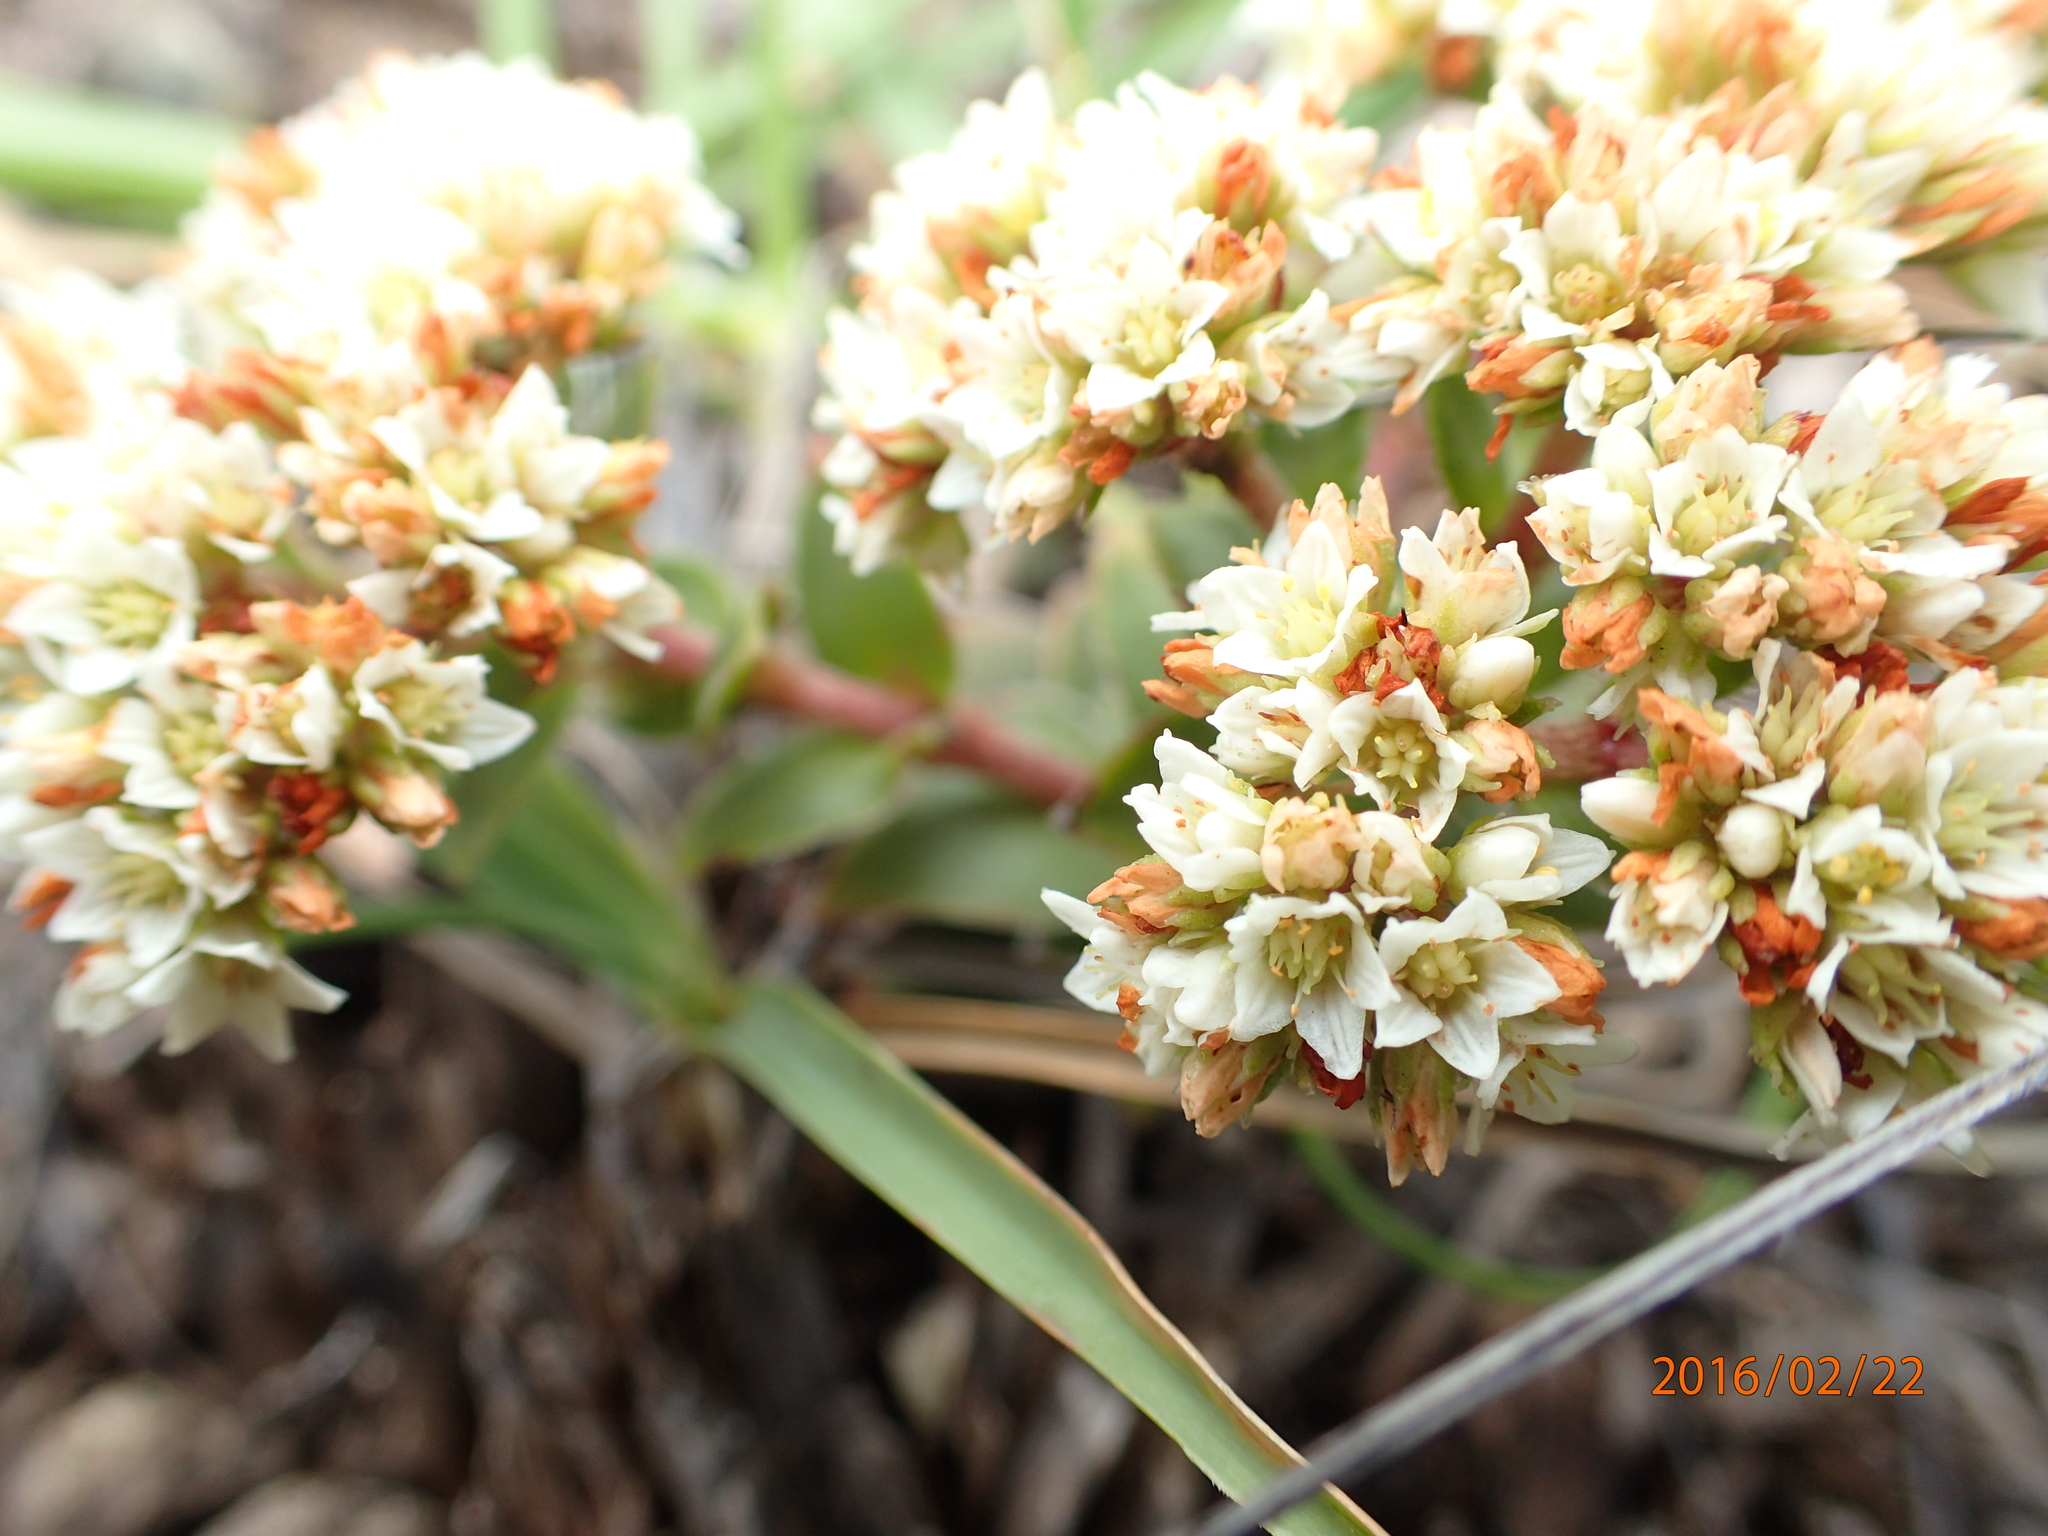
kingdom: Plantae
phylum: Tracheophyta
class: Magnoliopsida
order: Saxifragales
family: Crassulaceae
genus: Crassula
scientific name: Crassula setulosa
